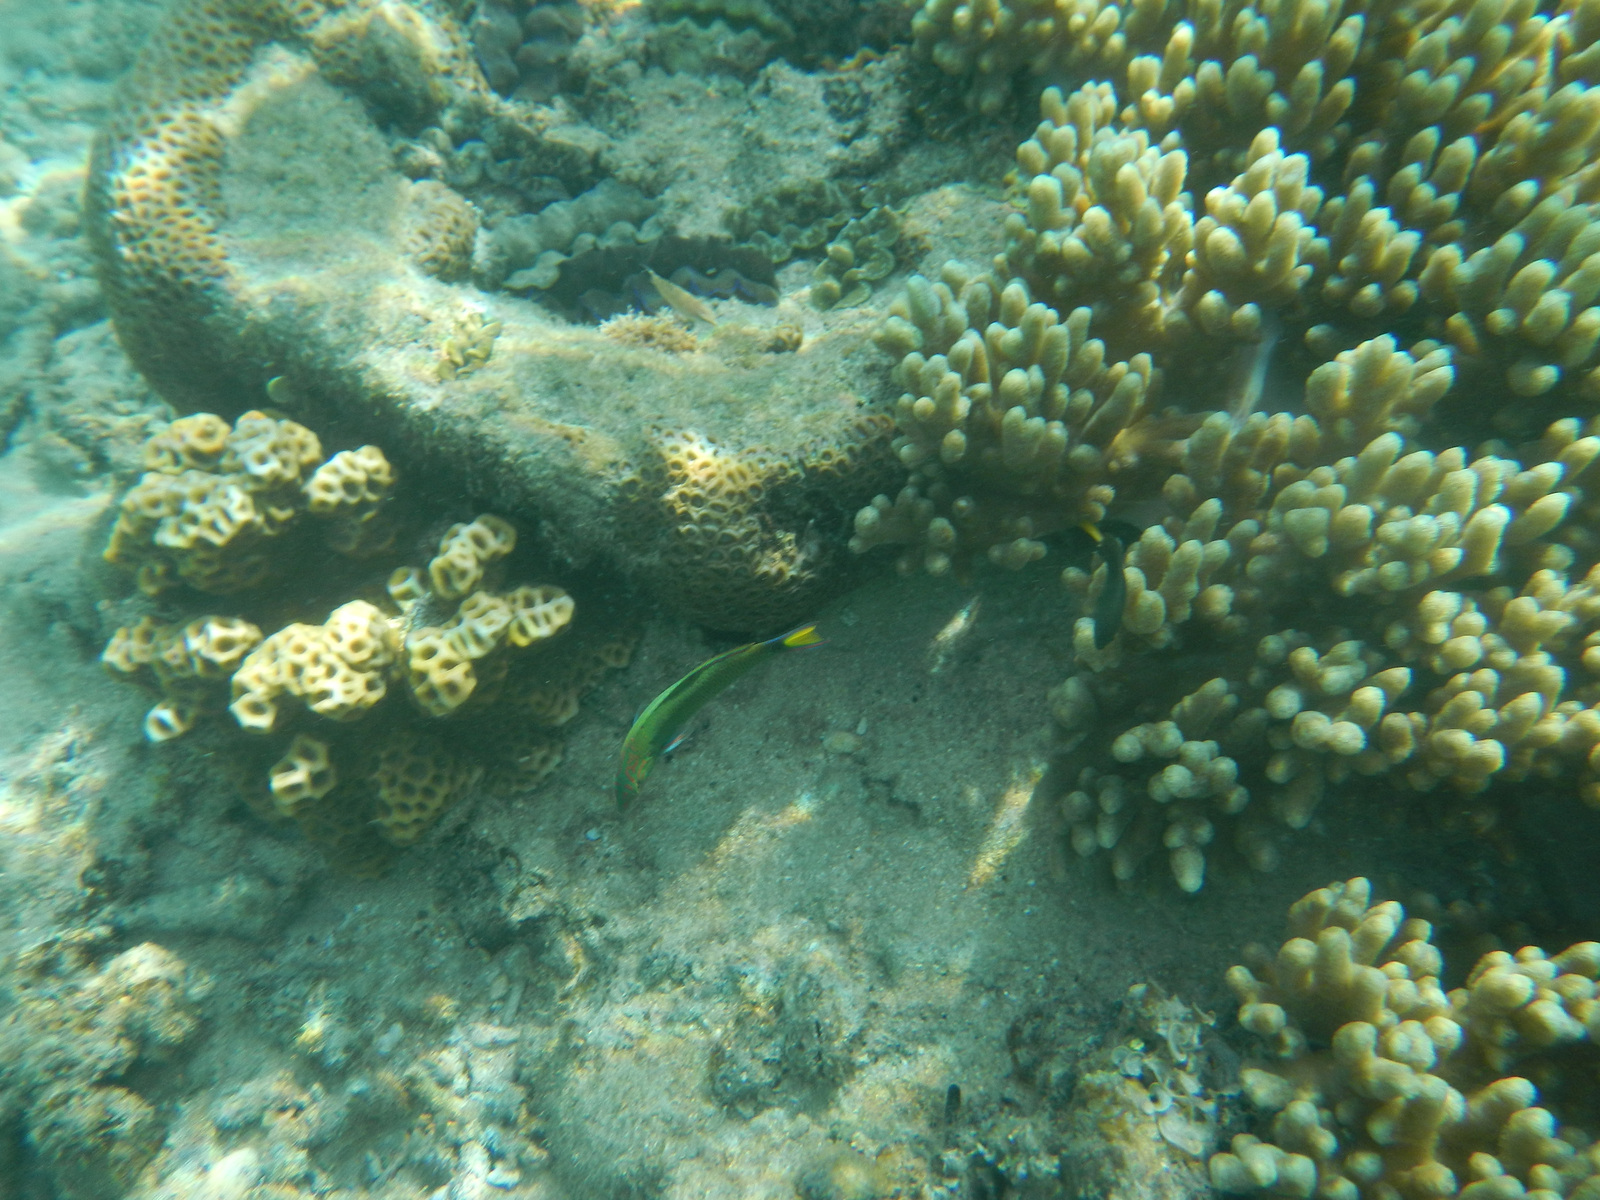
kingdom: Animalia
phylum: Chordata
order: Perciformes
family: Labridae
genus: Thalassoma
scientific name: Thalassoma lunare
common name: Blue wrasse
